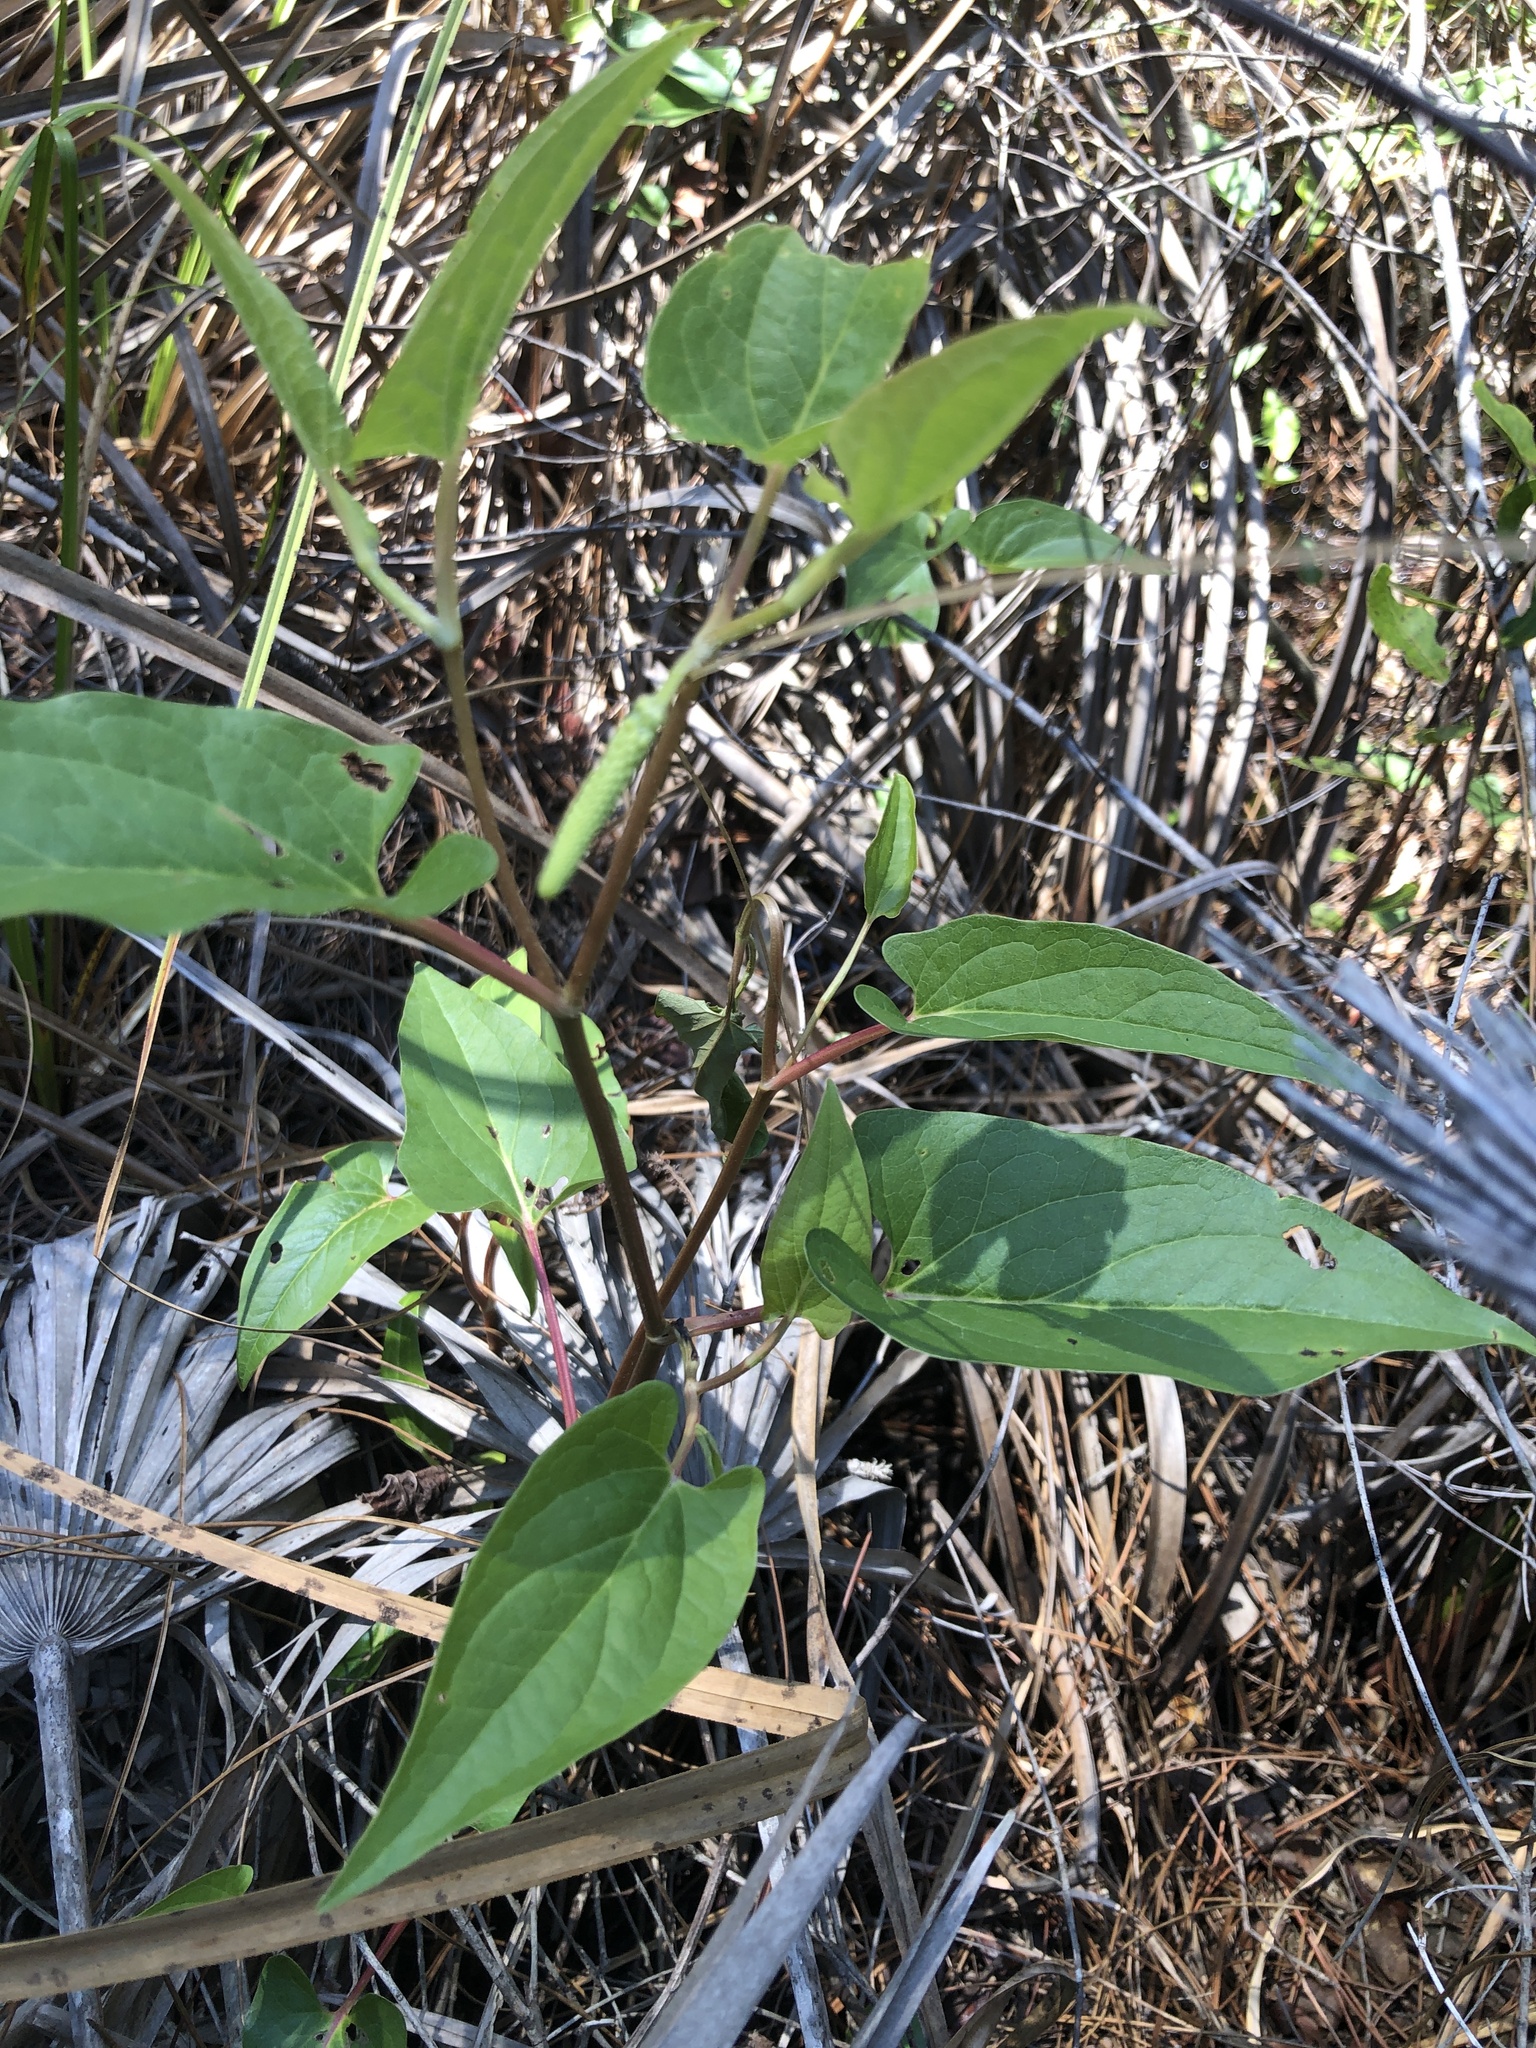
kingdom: Plantae
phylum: Tracheophyta
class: Magnoliopsida
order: Piperales
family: Saururaceae
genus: Saururus
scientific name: Saururus cernuus
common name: Lizard's-tail
